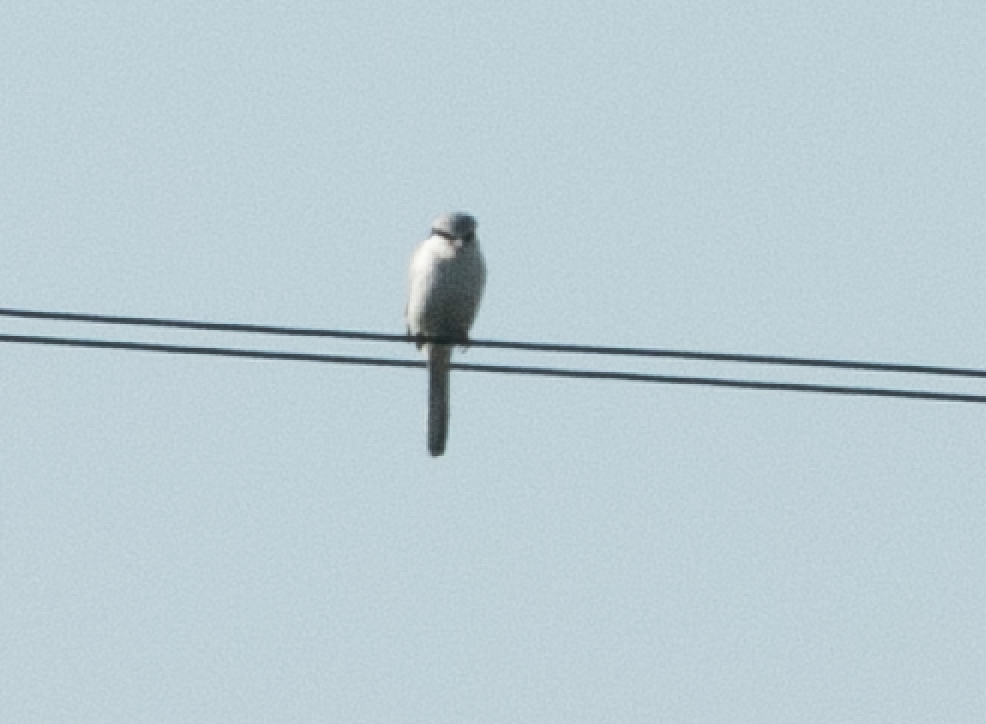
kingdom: Animalia
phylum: Chordata
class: Aves
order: Passeriformes
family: Laniidae
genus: Lanius
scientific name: Lanius excubitor
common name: Great grey shrike
